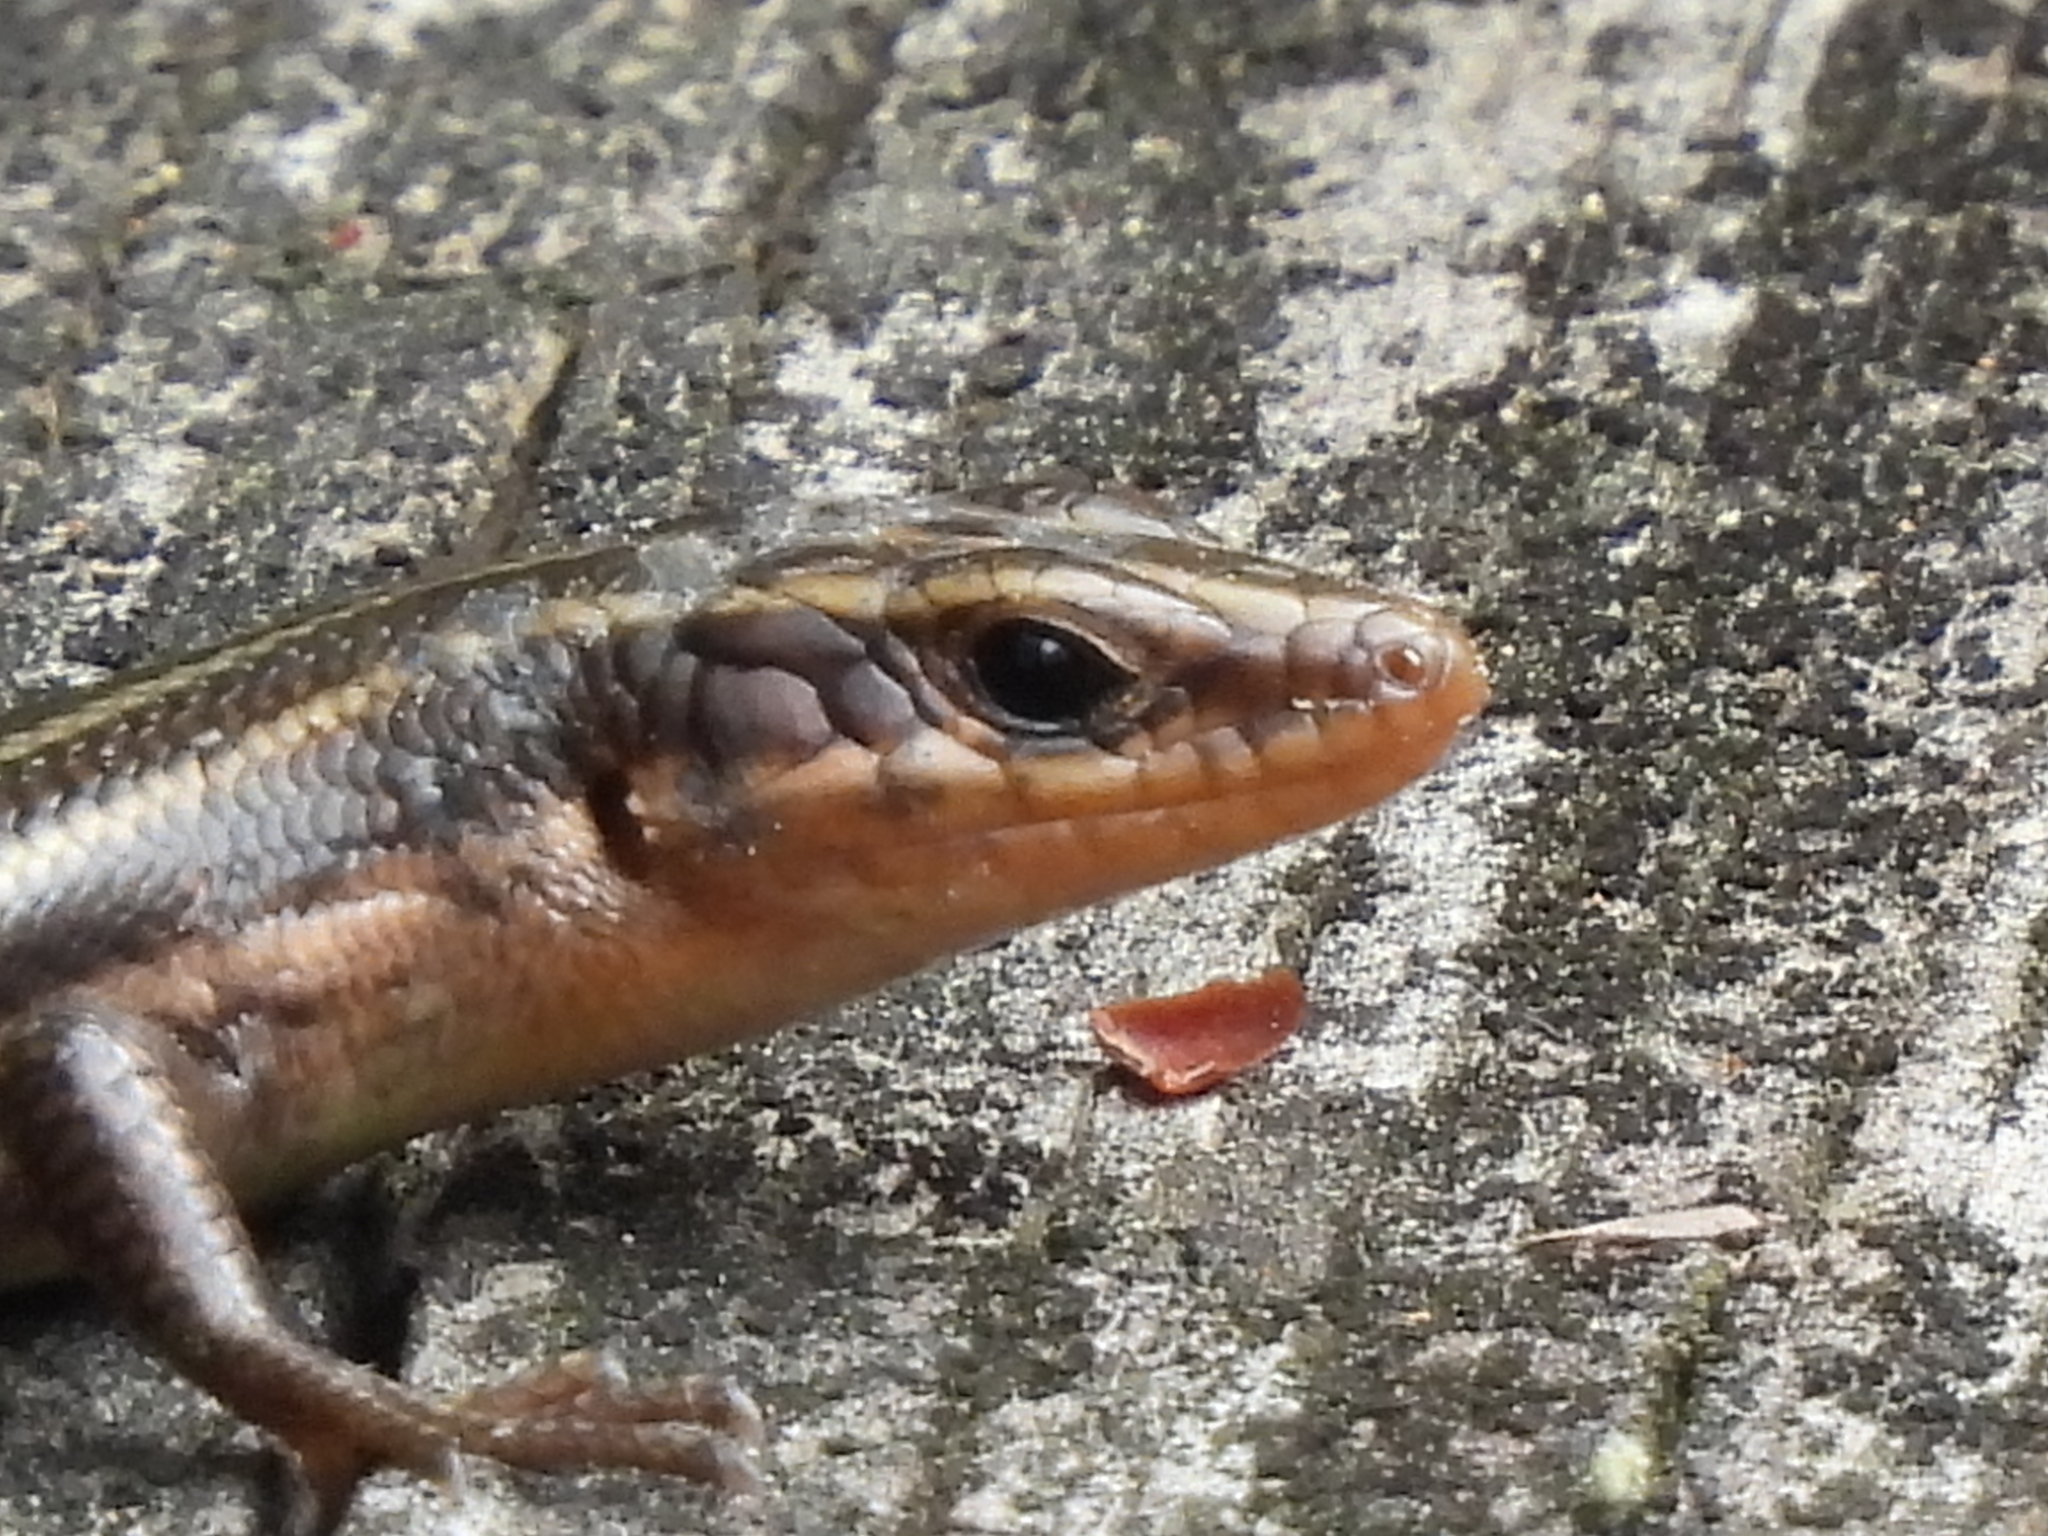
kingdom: Animalia
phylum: Chordata
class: Squamata
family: Scincidae
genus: Plestiodon
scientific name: Plestiodon fasciatus
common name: Five-lined skink
